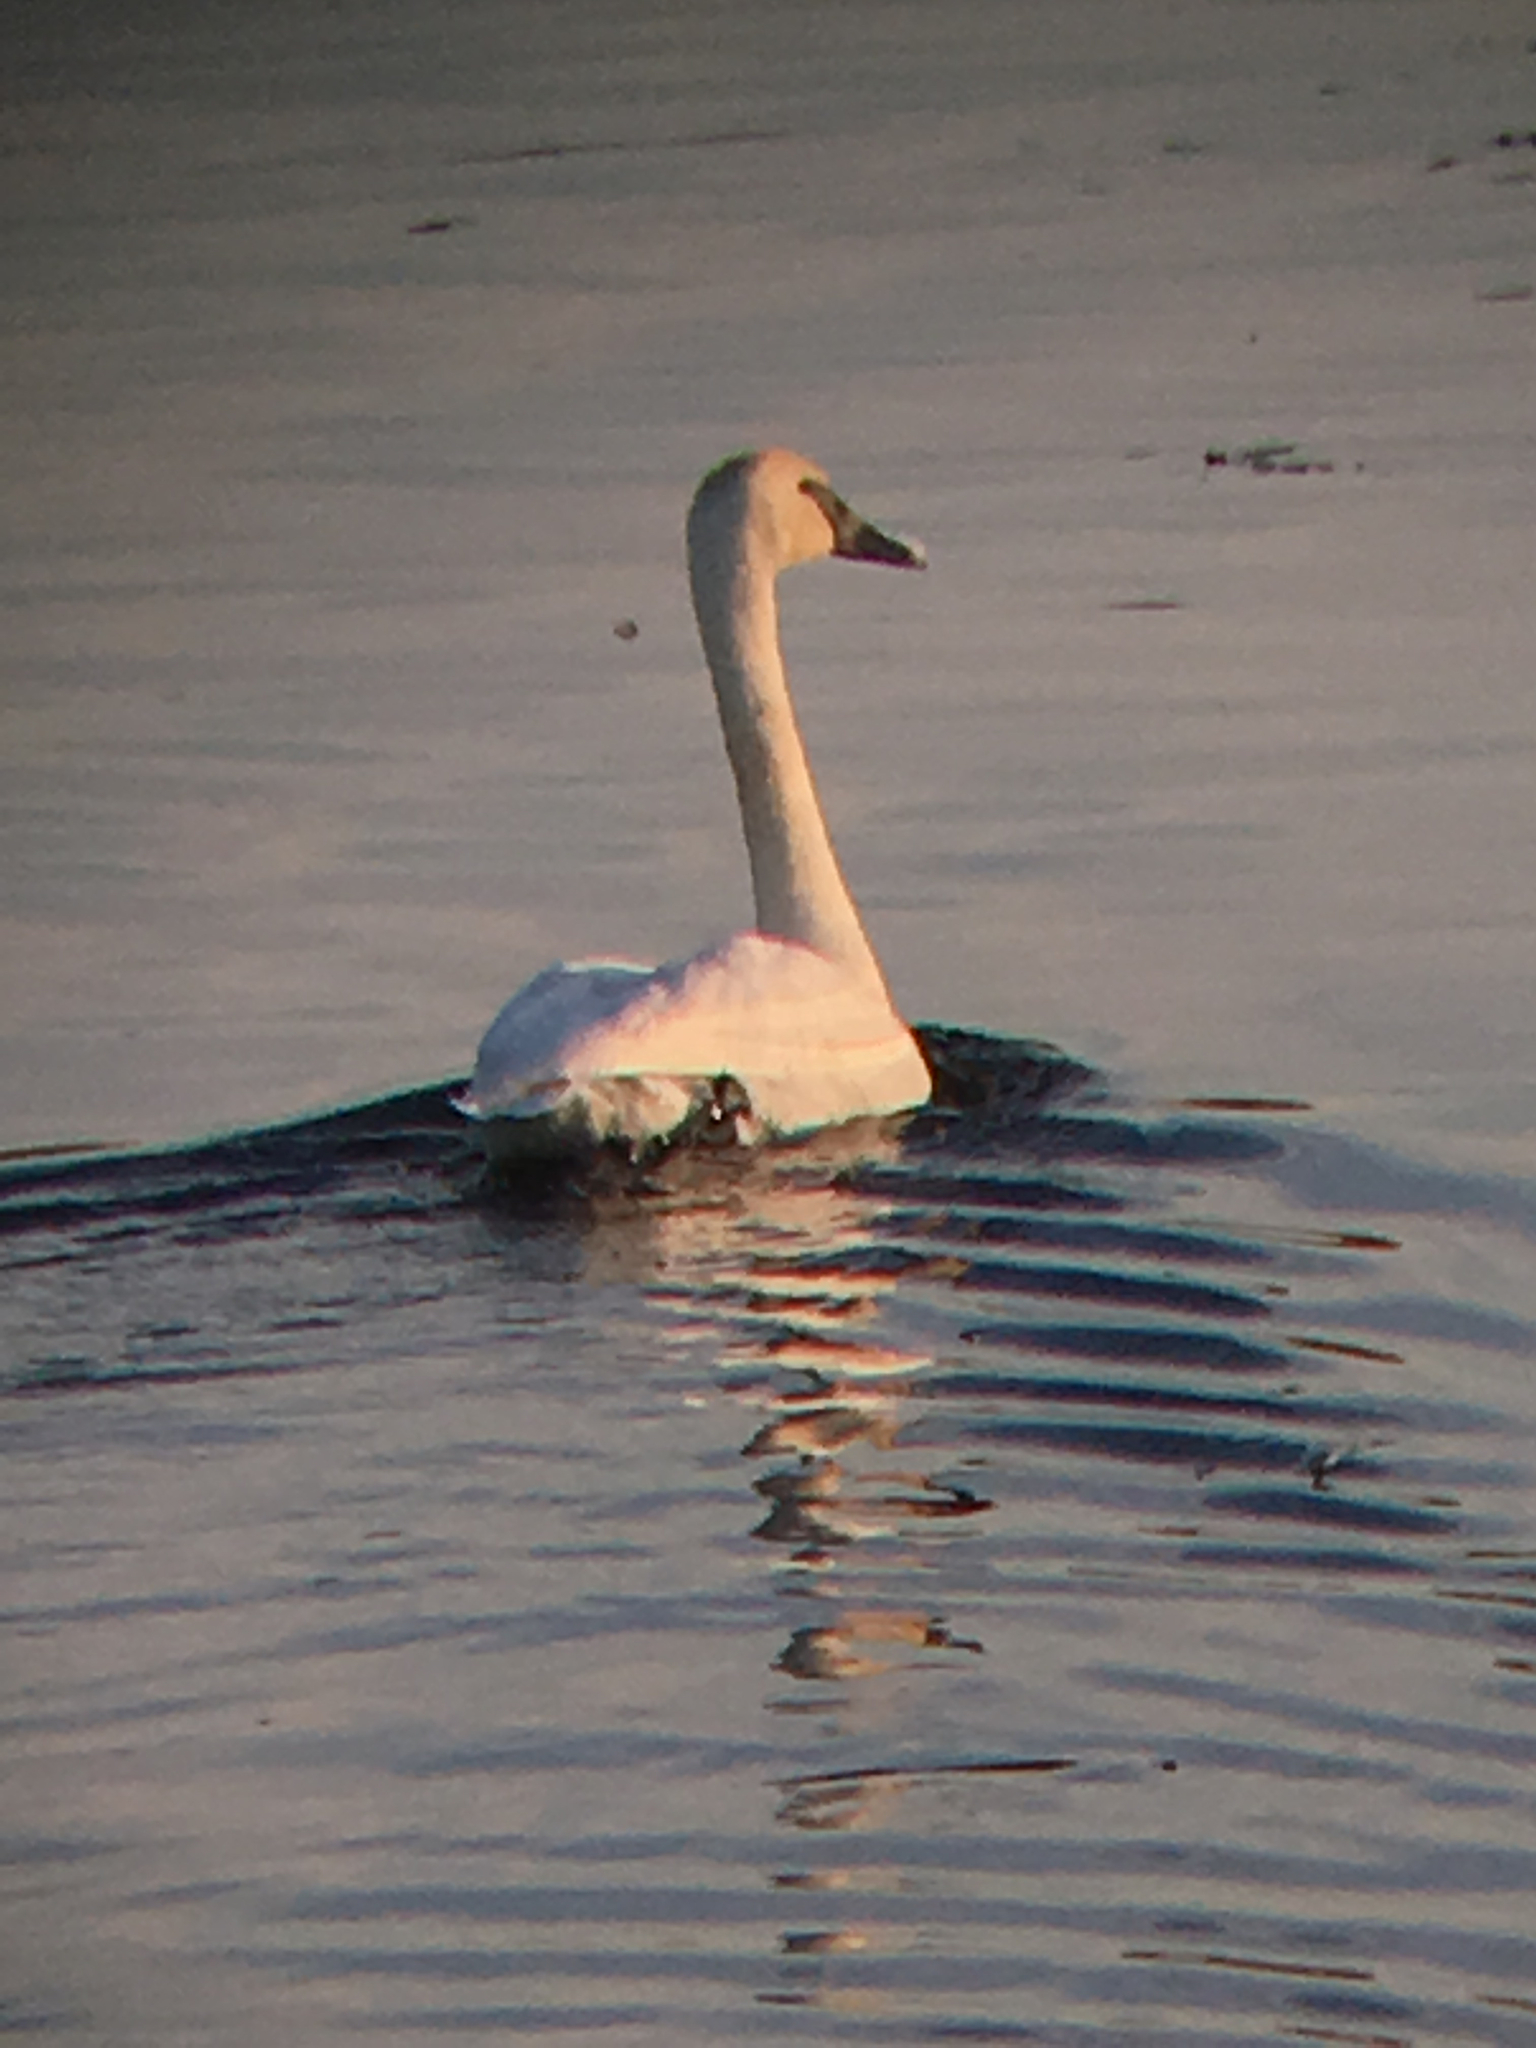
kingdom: Animalia
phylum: Chordata
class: Aves
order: Anseriformes
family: Anatidae
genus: Cygnus
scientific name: Cygnus buccinator
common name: Trumpeter swan
